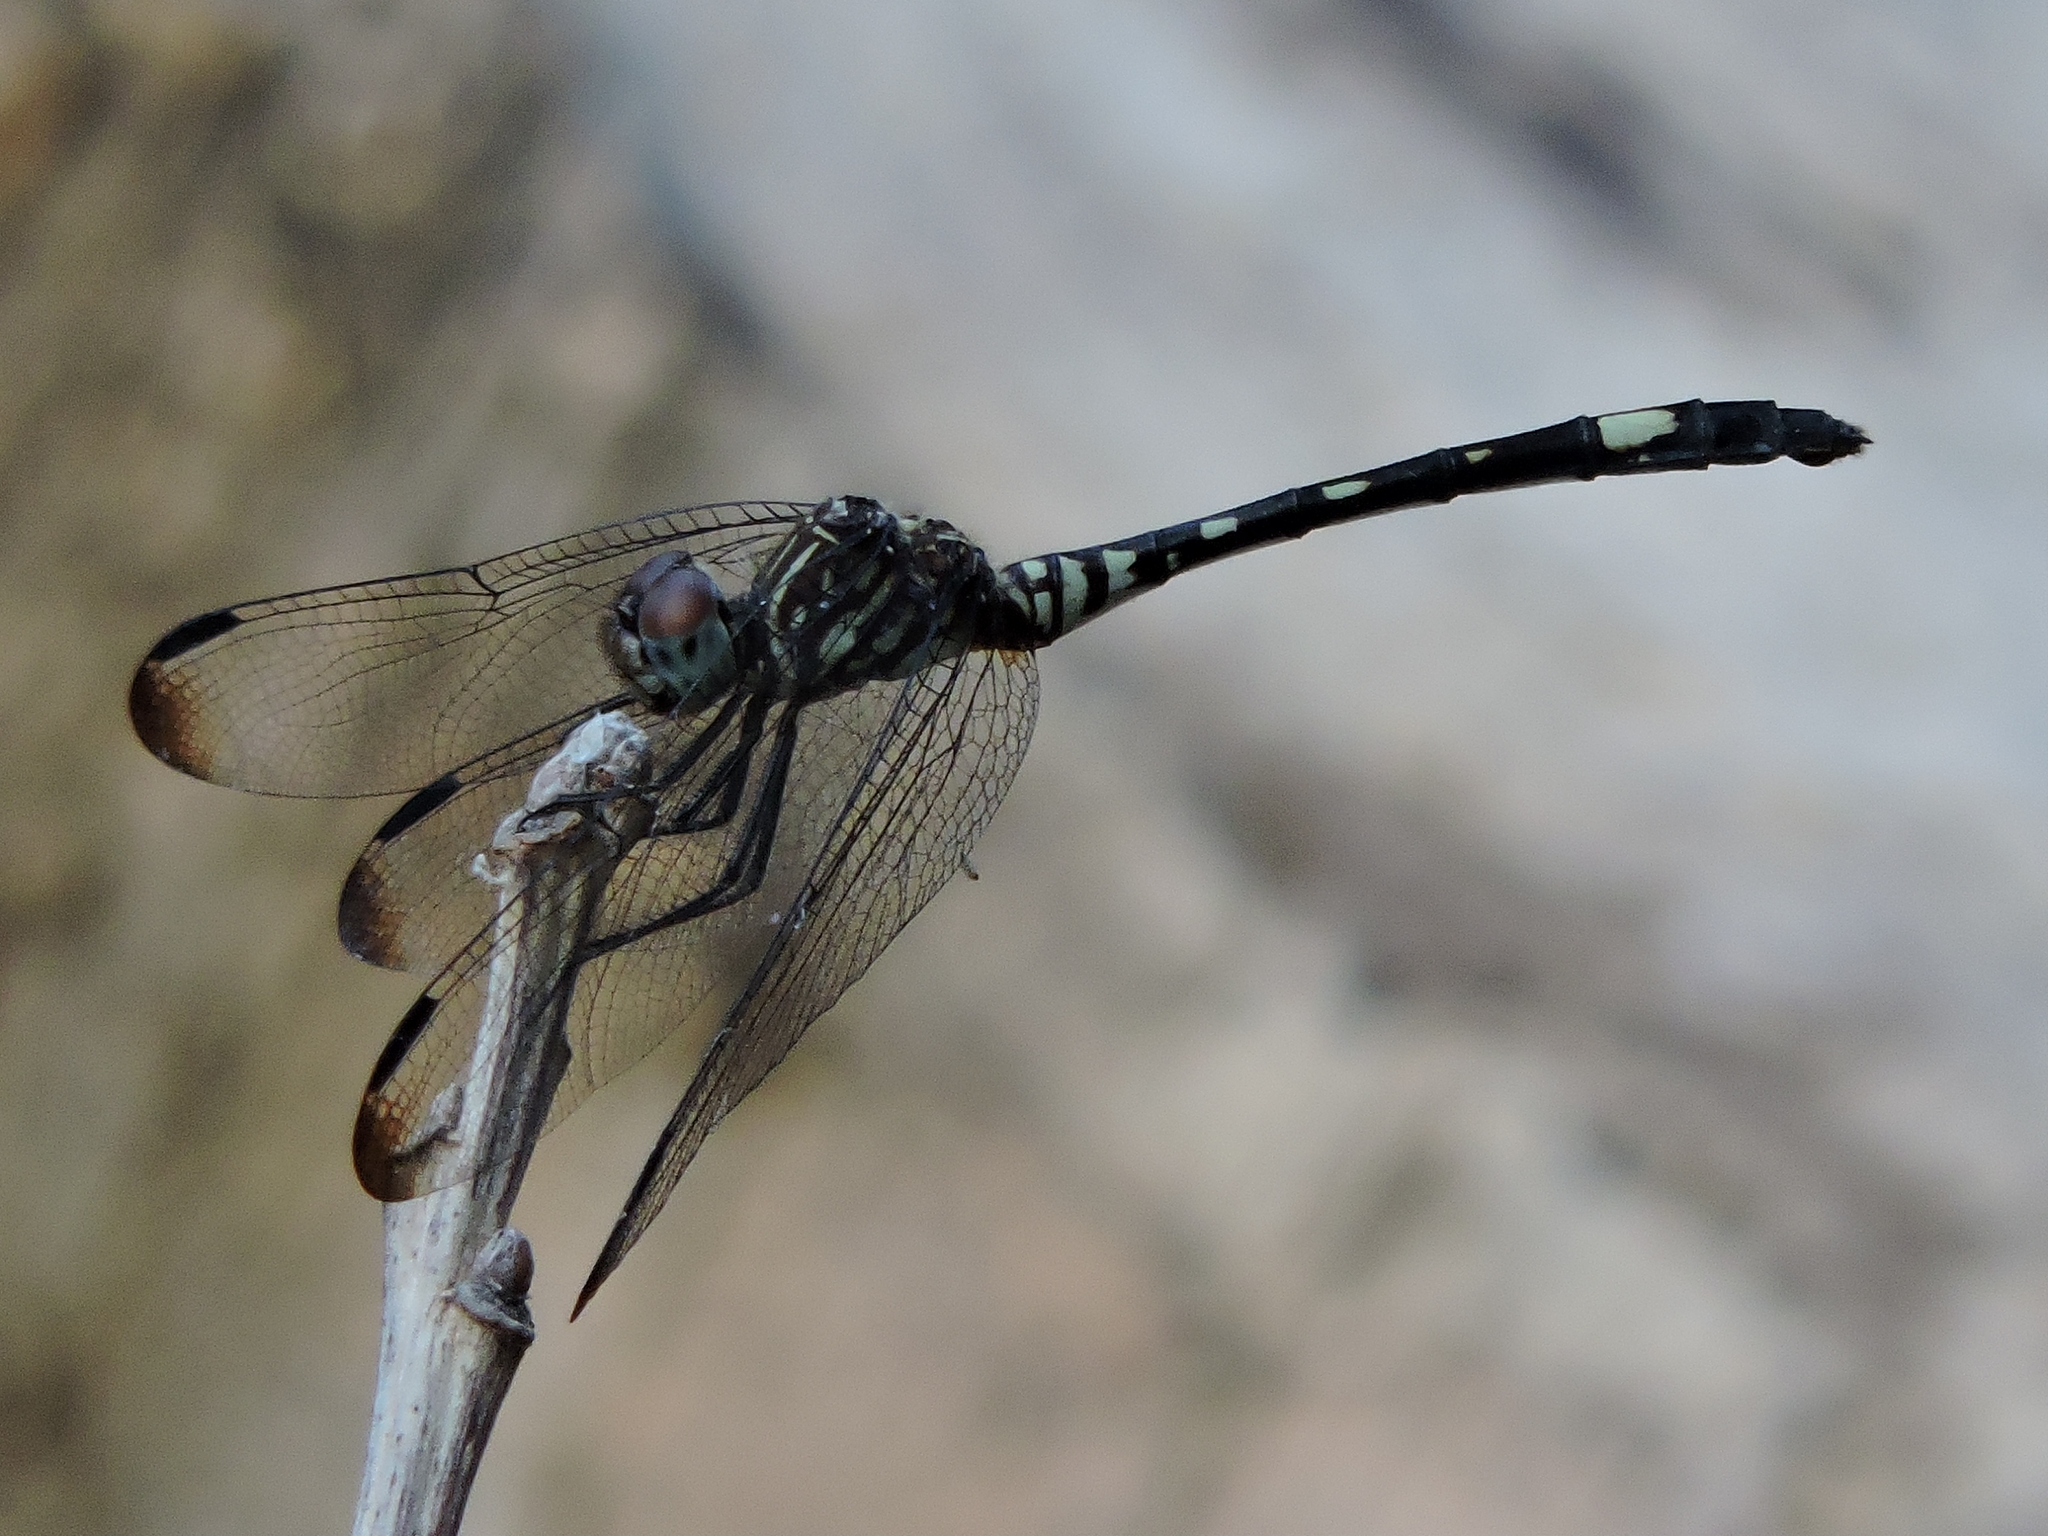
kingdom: Animalia
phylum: Arthropoda
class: Insecta
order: Odonata
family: Libellulidae
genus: Dythemis
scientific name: Dythemis velox
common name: Swift setwing
